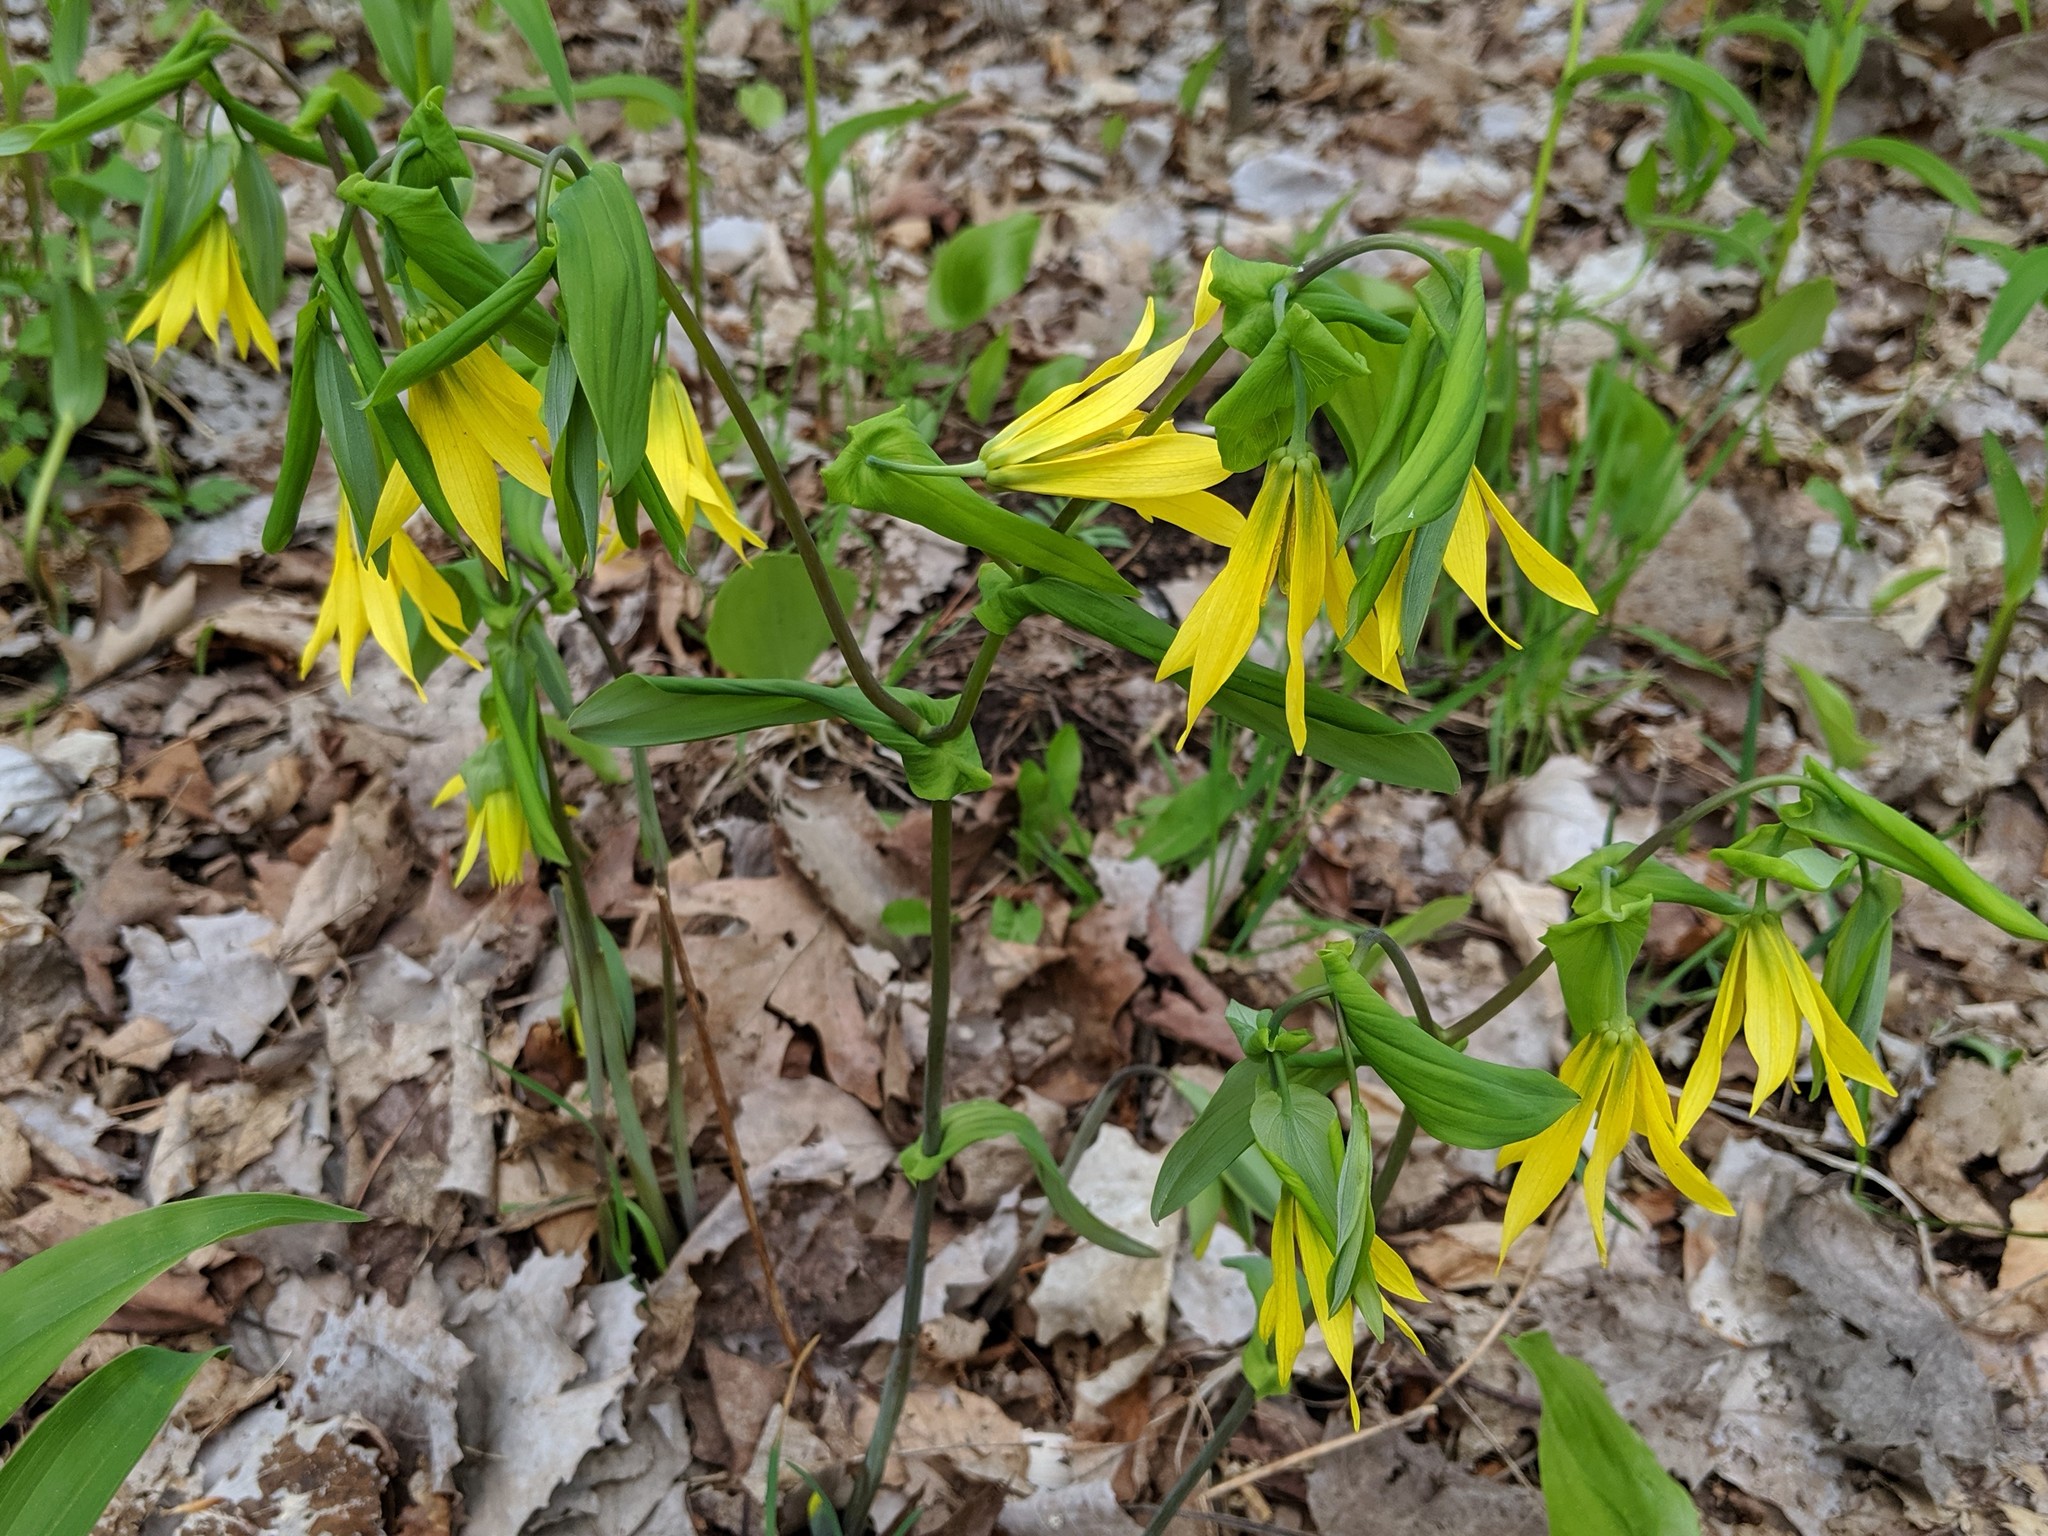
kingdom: Plantae
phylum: Tracheophyta
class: Liliopsida
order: Liliales
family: Colchicaceae
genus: Uvularia
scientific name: Uvularia grandiflora
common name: Bellwort
